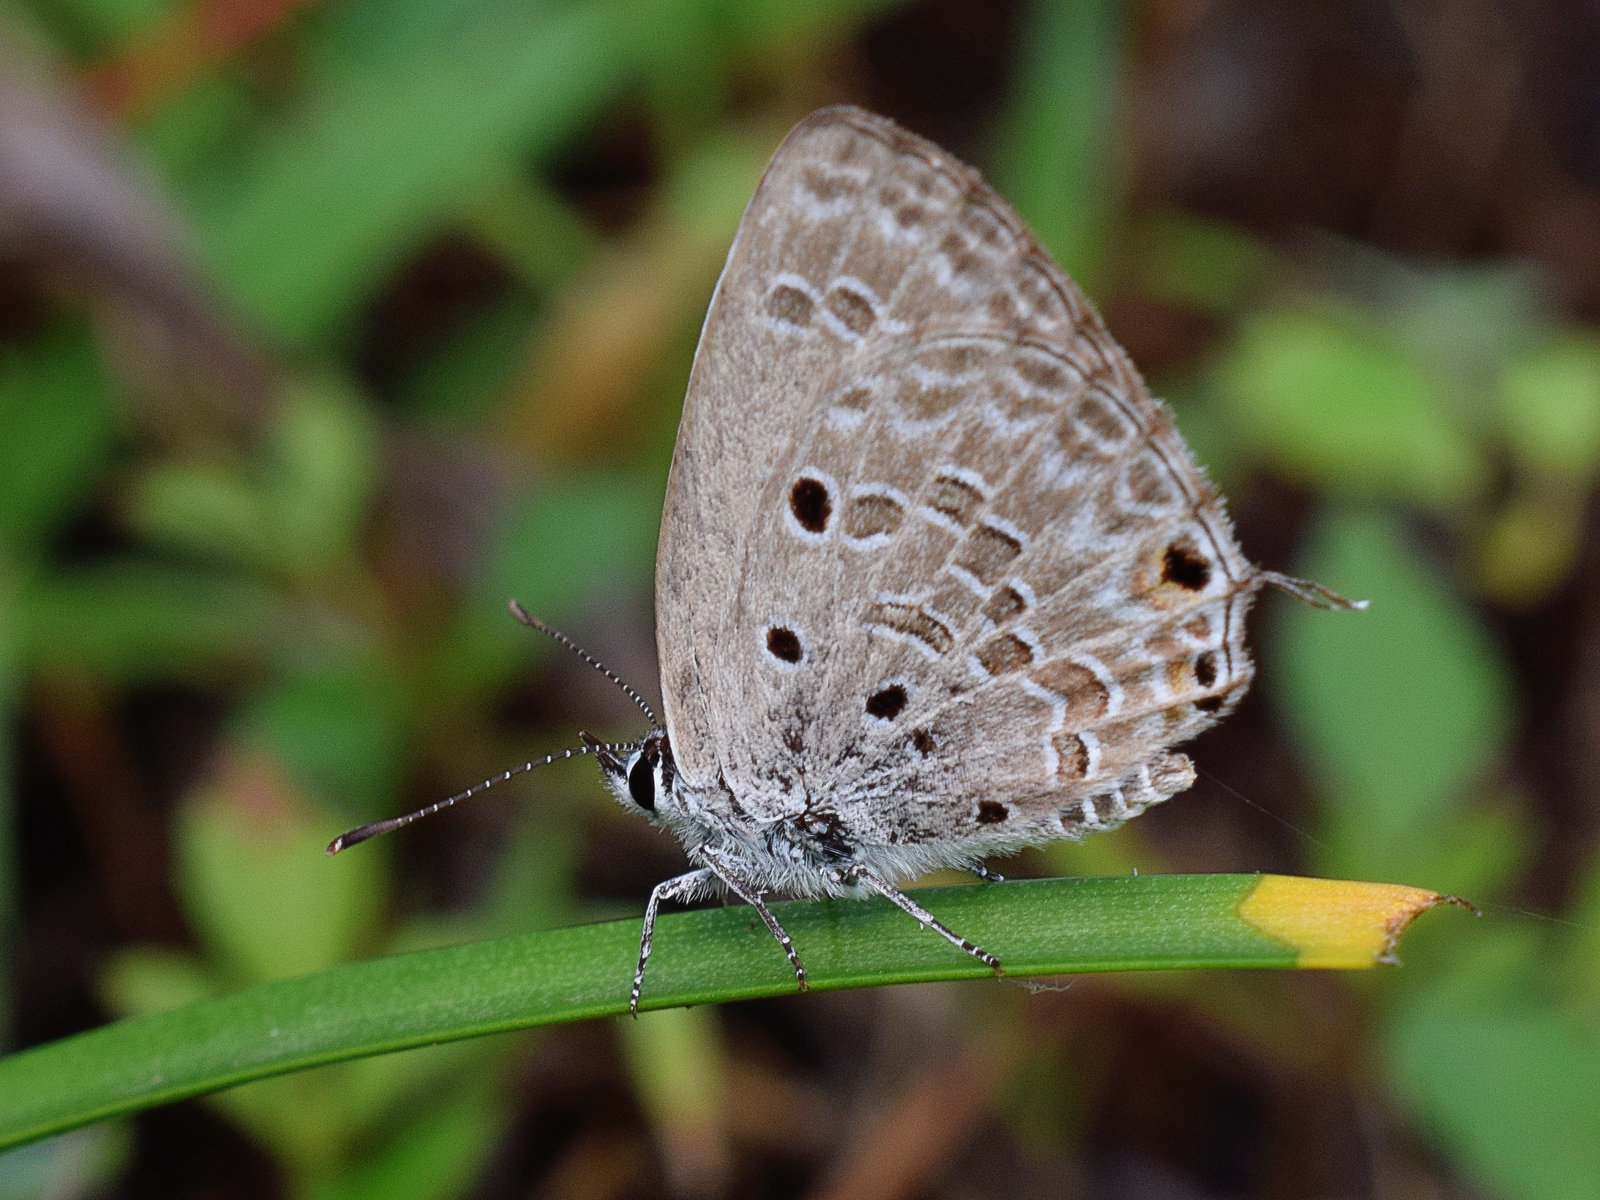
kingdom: Animalia
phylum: Arthropoda
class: Insecta
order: Lepidoptera
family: Lycaenidae
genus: Luthrodes
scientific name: Luthrodes pandava
